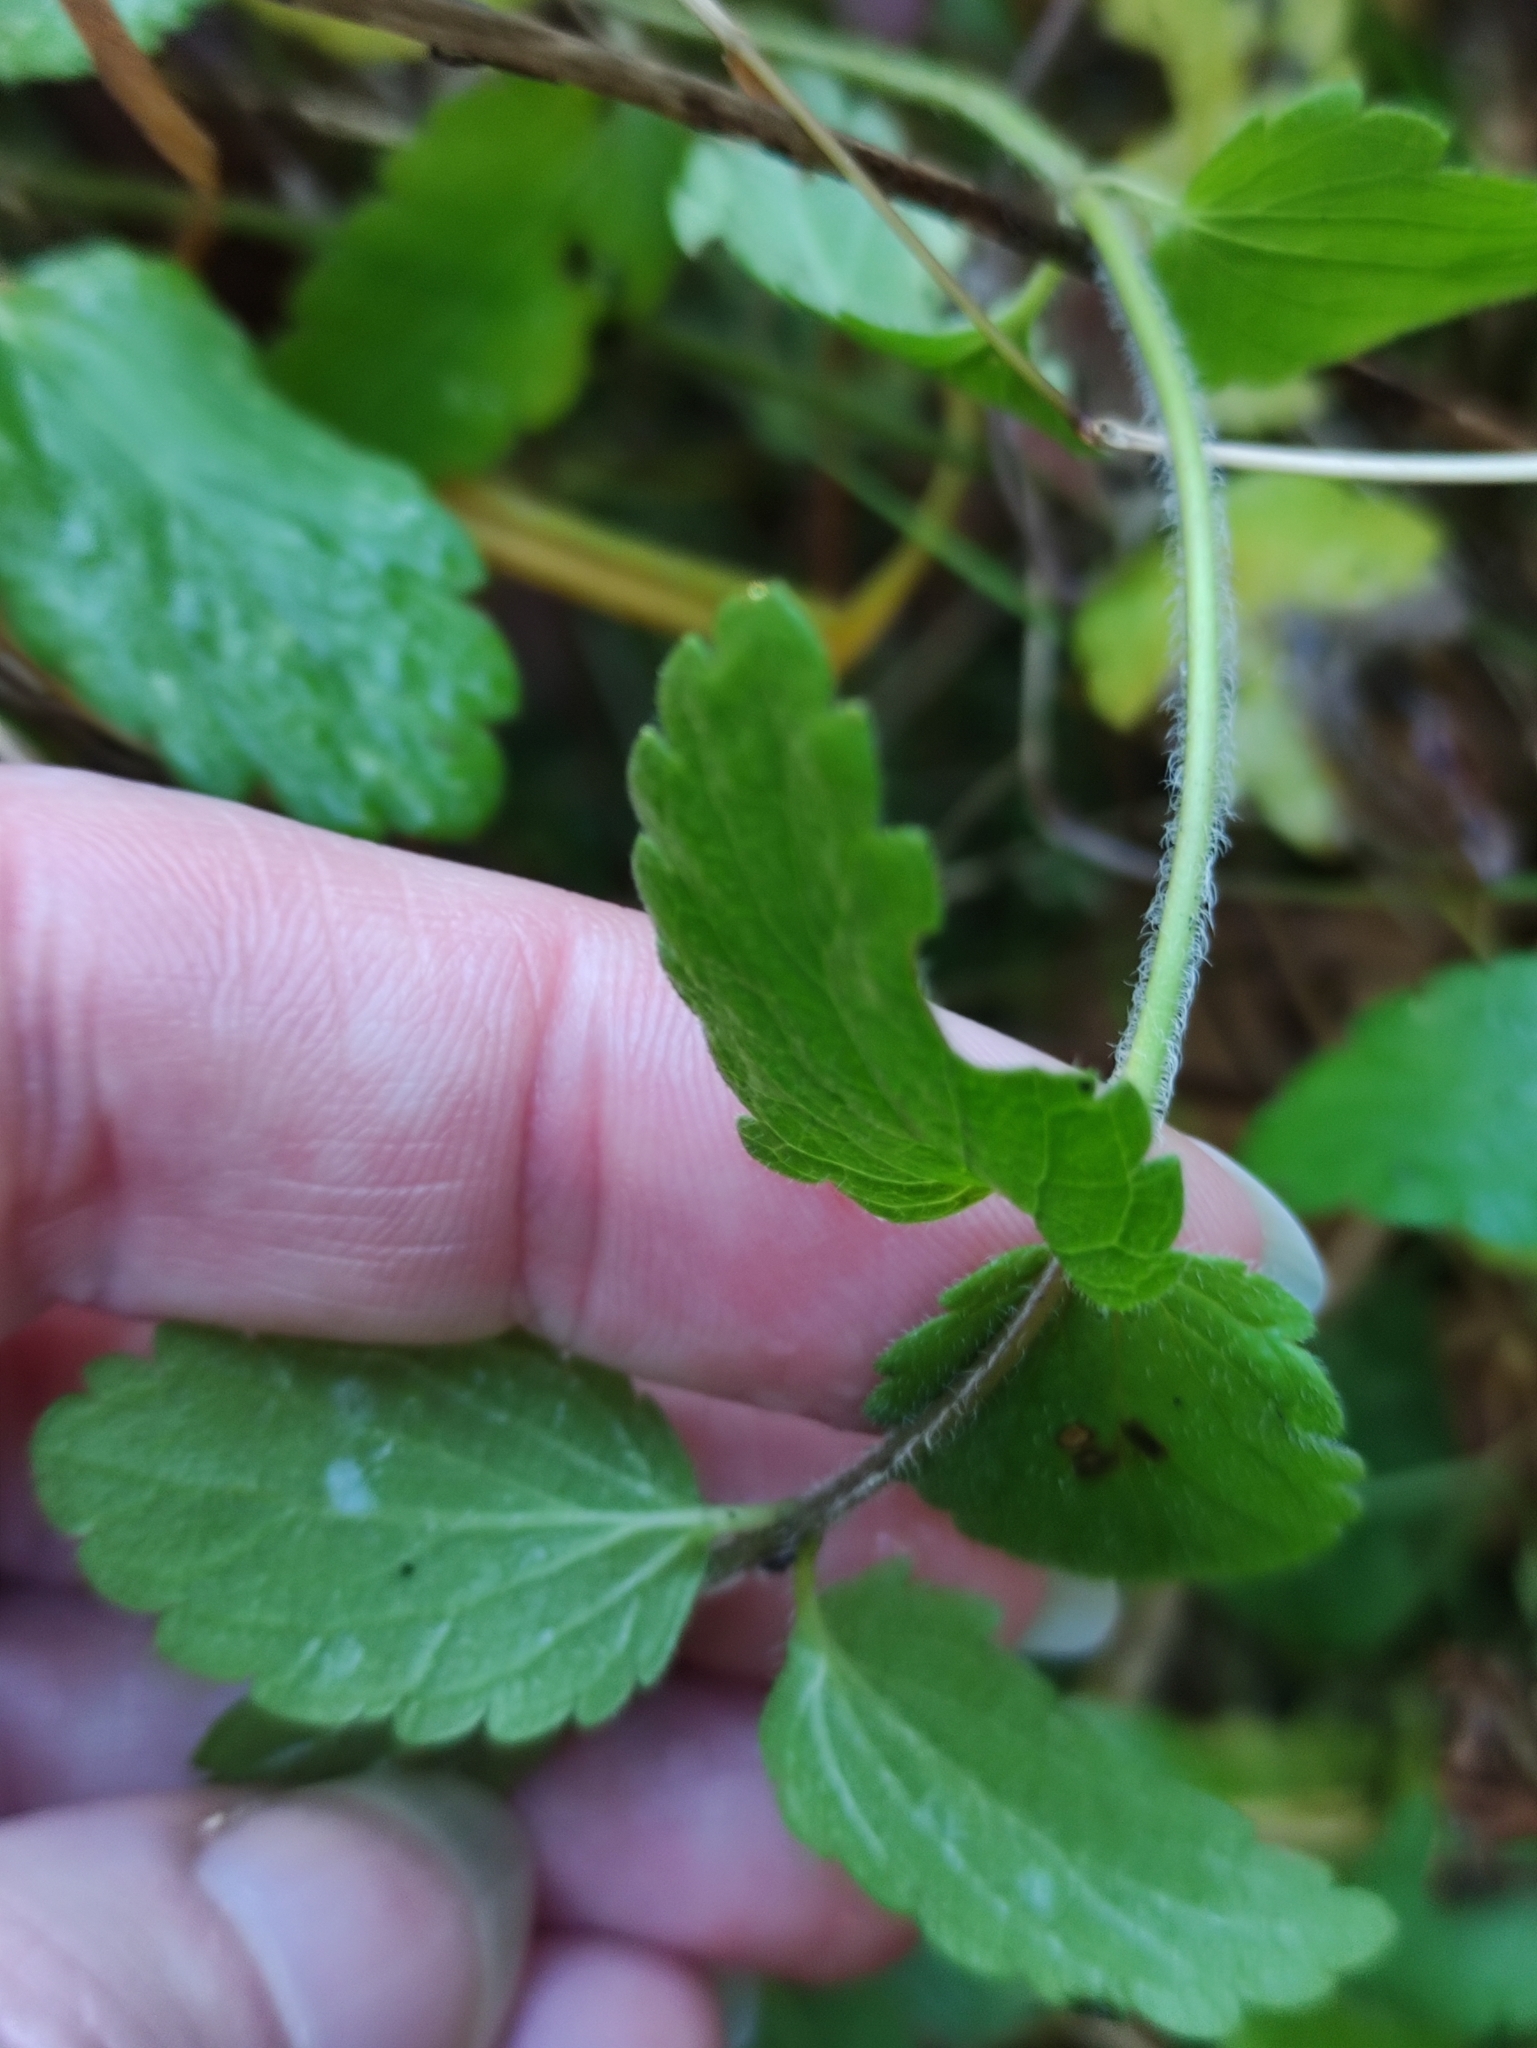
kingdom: Plantae
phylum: Tracheophyta
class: Magnoliopsida
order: Lamiales
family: Plantaginaceae
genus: Veronica
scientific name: Veronica chamaedrys
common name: Germander speedwell
